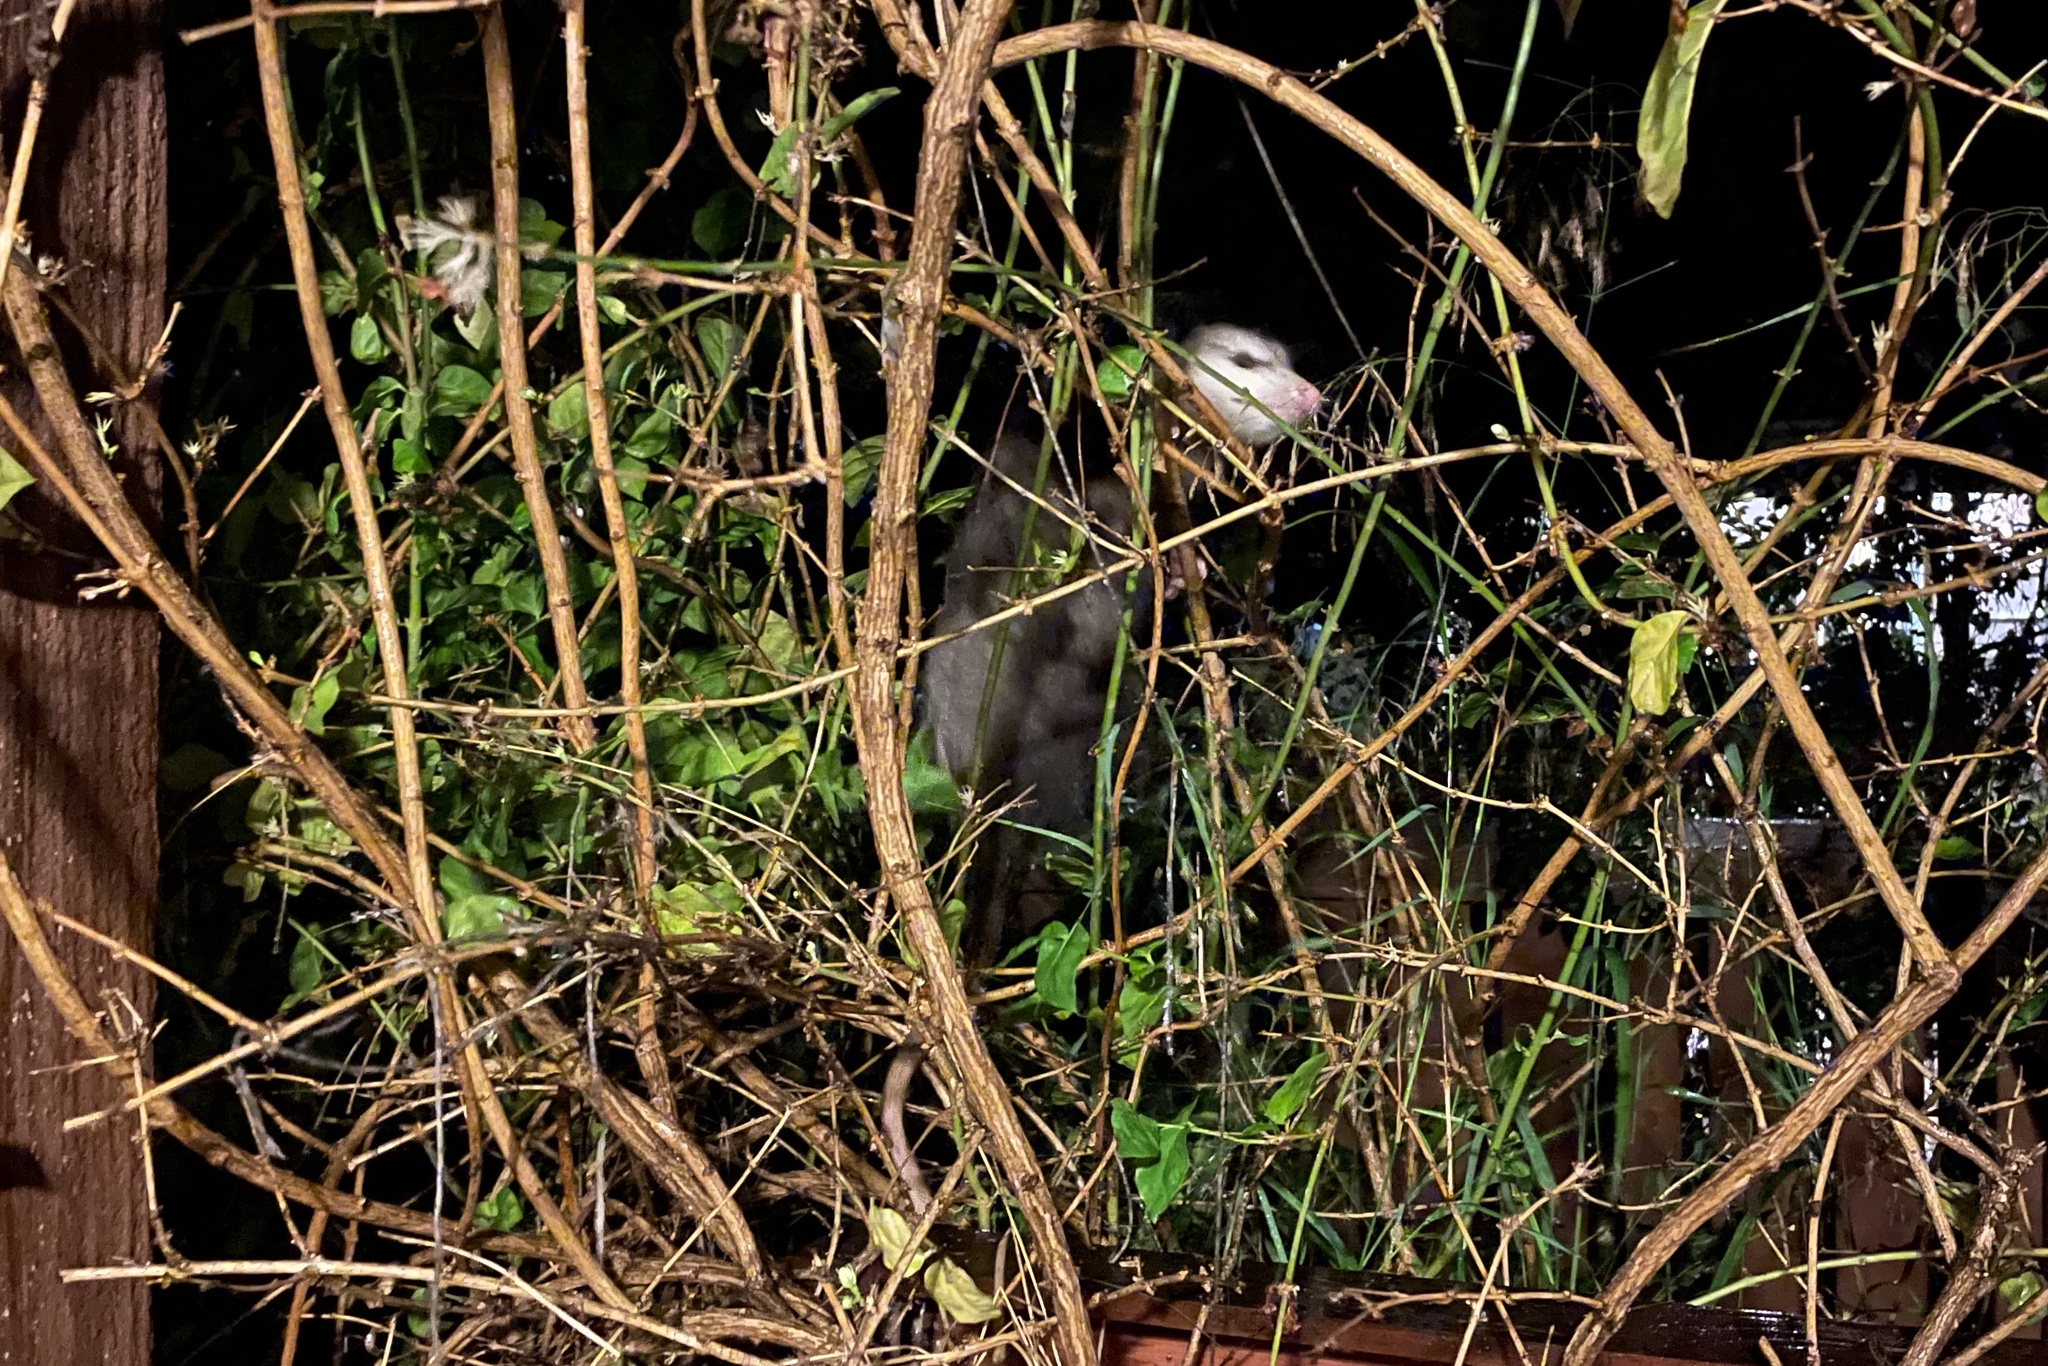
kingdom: Animalia
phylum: Chordata
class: Mammalia
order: Didelphimorphia
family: Didelphidae
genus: Didelphis
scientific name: Didelphis virginiana
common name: Virginia opossum
